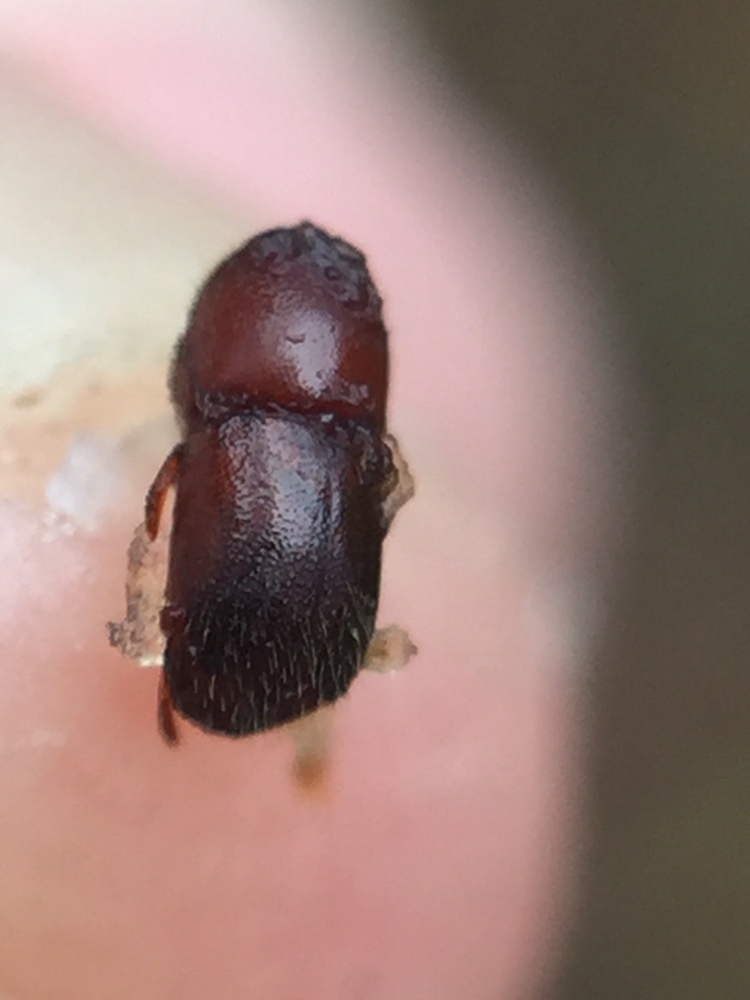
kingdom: Animalia
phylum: Arthropoda
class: Insecta
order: Coleoptera
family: Curculionidae
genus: Xylosandrus
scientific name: Xylosandrus crassiusculus
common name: Granulate ambrosia beetle
